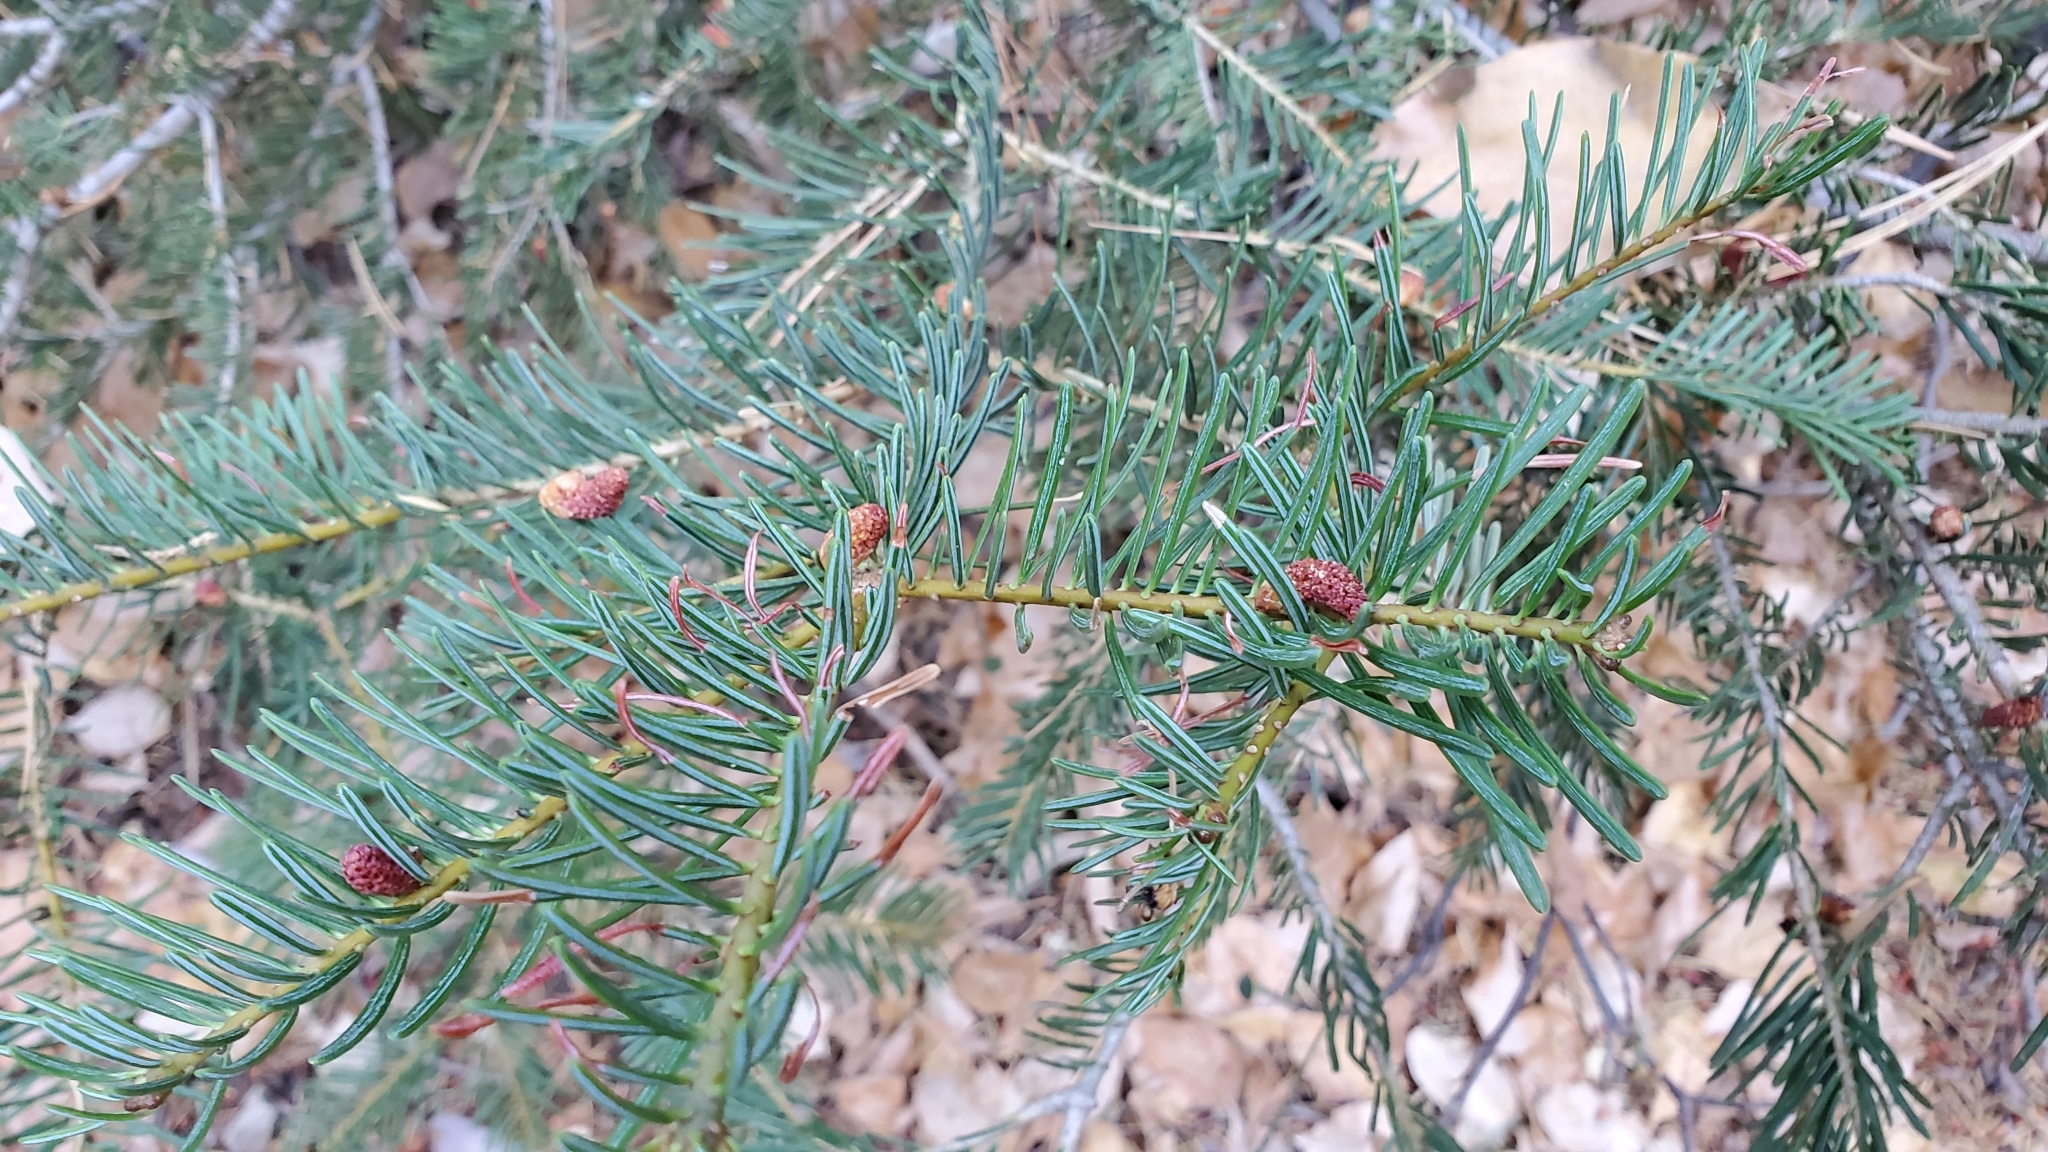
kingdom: Plantae
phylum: Tracheophyta
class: Pinopsida
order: Pinales
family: Pinaceae
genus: Abies
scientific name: Abies concolor
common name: Colorado fir
